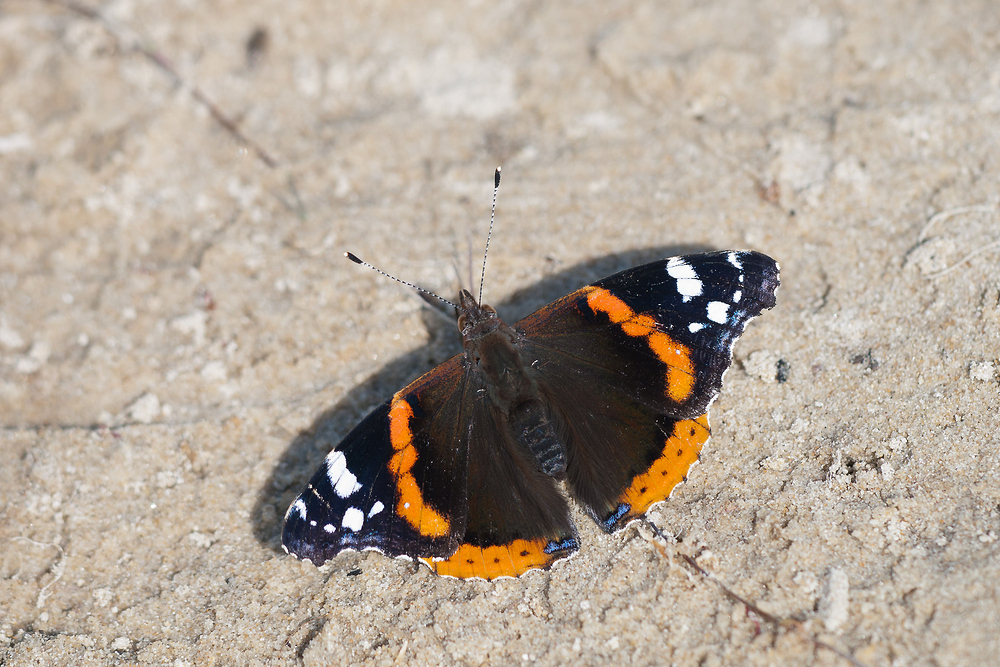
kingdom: Animalia
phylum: Arthropoda
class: Insecta
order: Lepidoptera
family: Nymphalidae
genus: Vanessa
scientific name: Vanessa atalanta
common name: Red admiral
